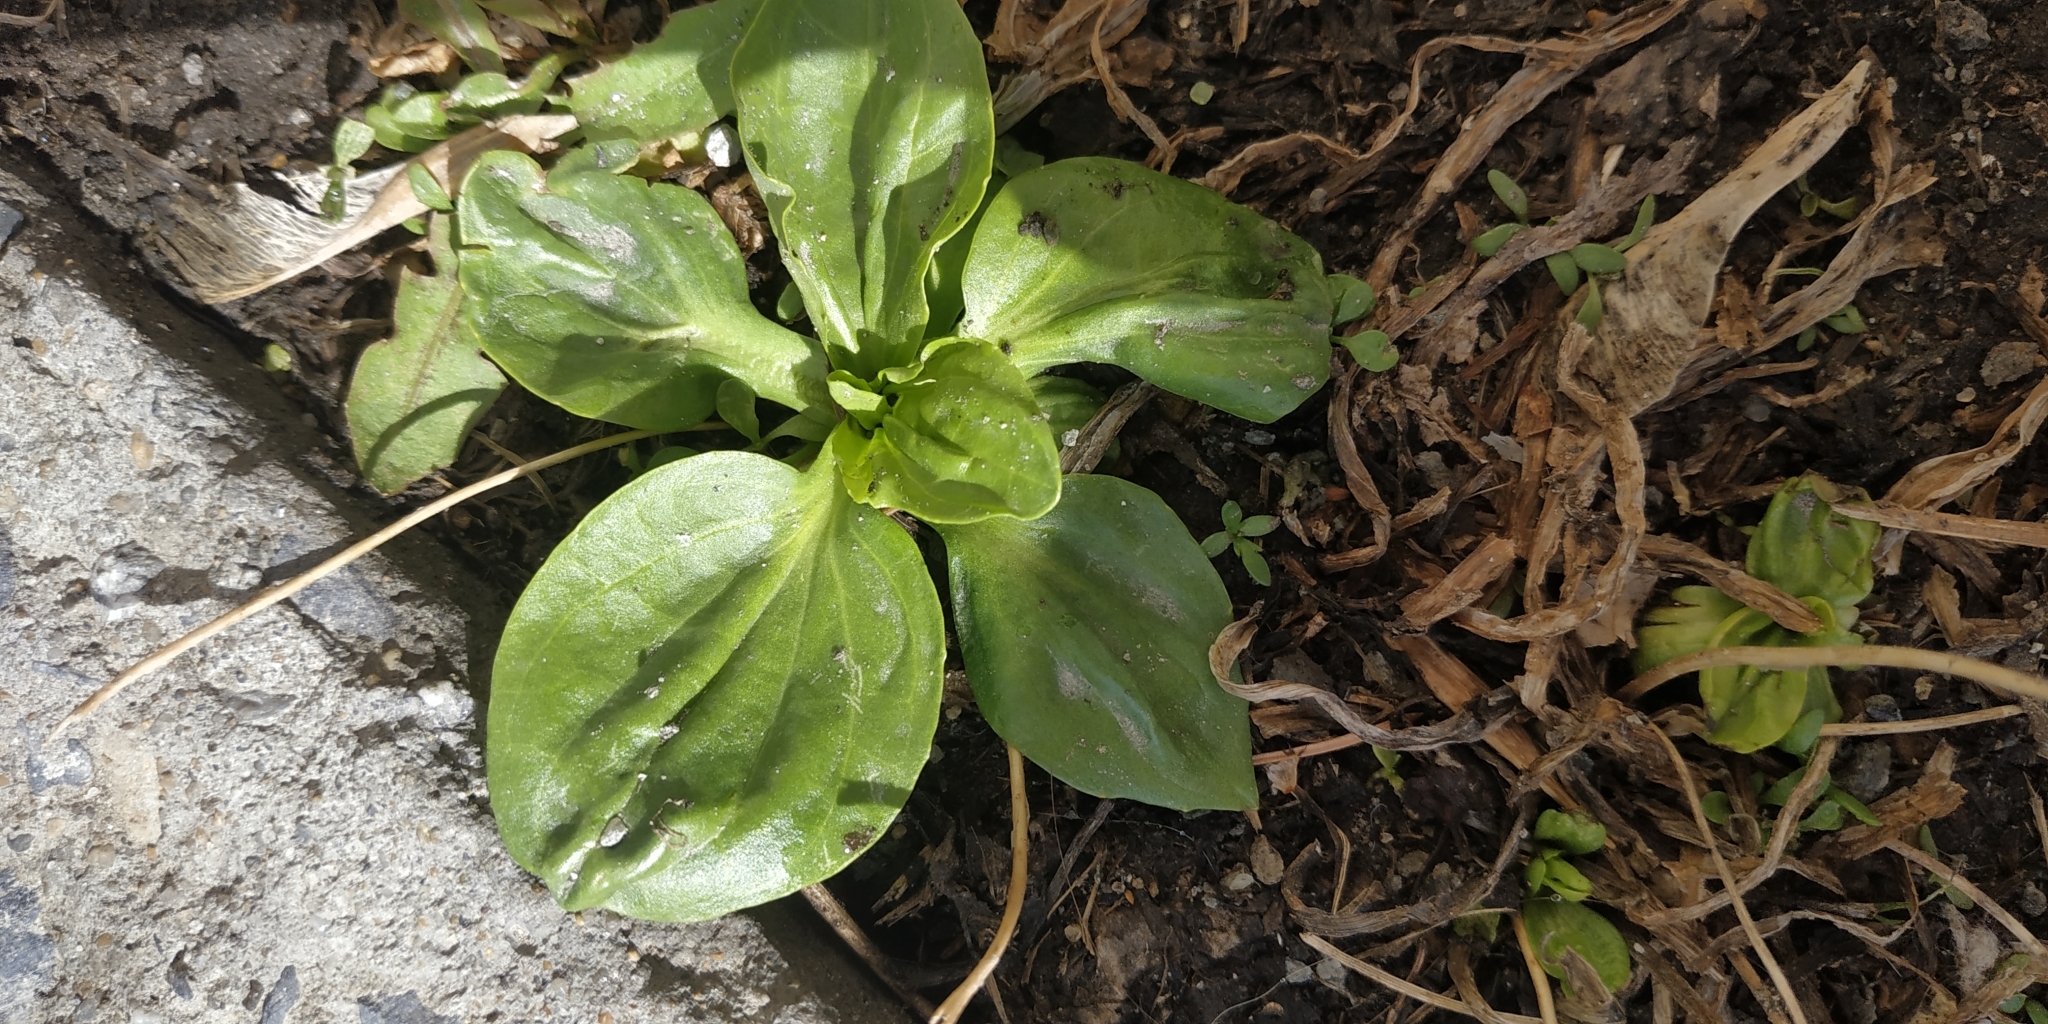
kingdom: Plantae
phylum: Tracheophyta
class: Magnoliopsida
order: Lamiales
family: Plantaginaceae
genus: Plantago
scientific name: Plantago major
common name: Common plantain
